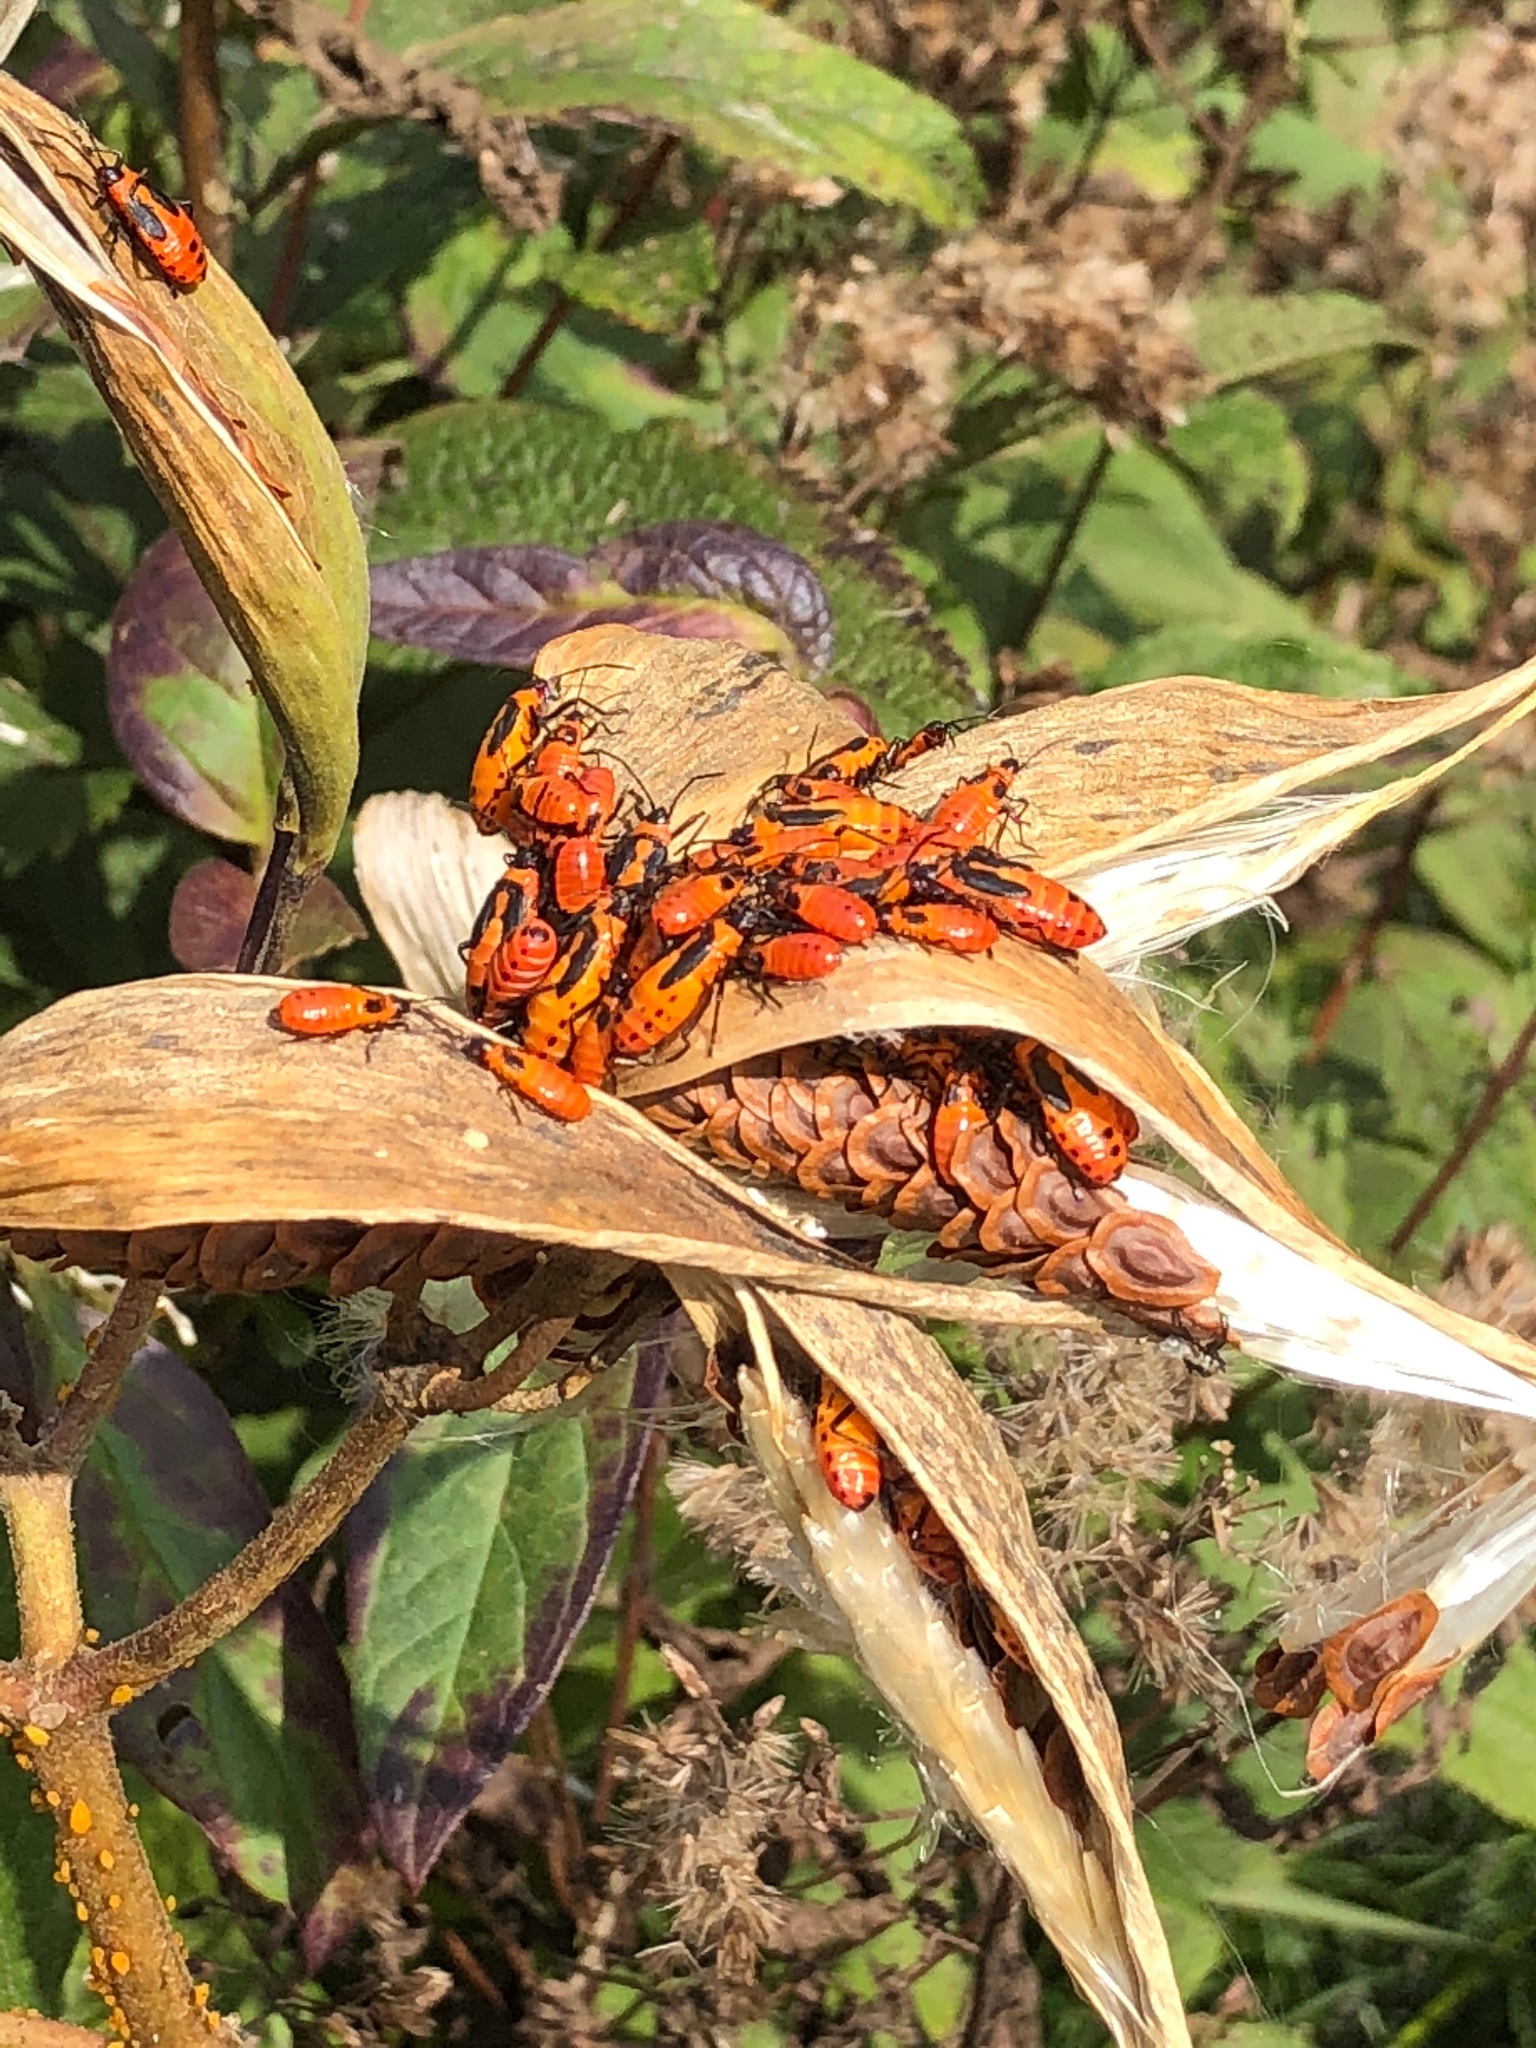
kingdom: Animalia
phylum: Arthropoda
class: Insecta
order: Hemiptera
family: Lygaeidae
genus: Oncopeltus
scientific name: Oncopeltus fasciatus
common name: Large milkweed bug
